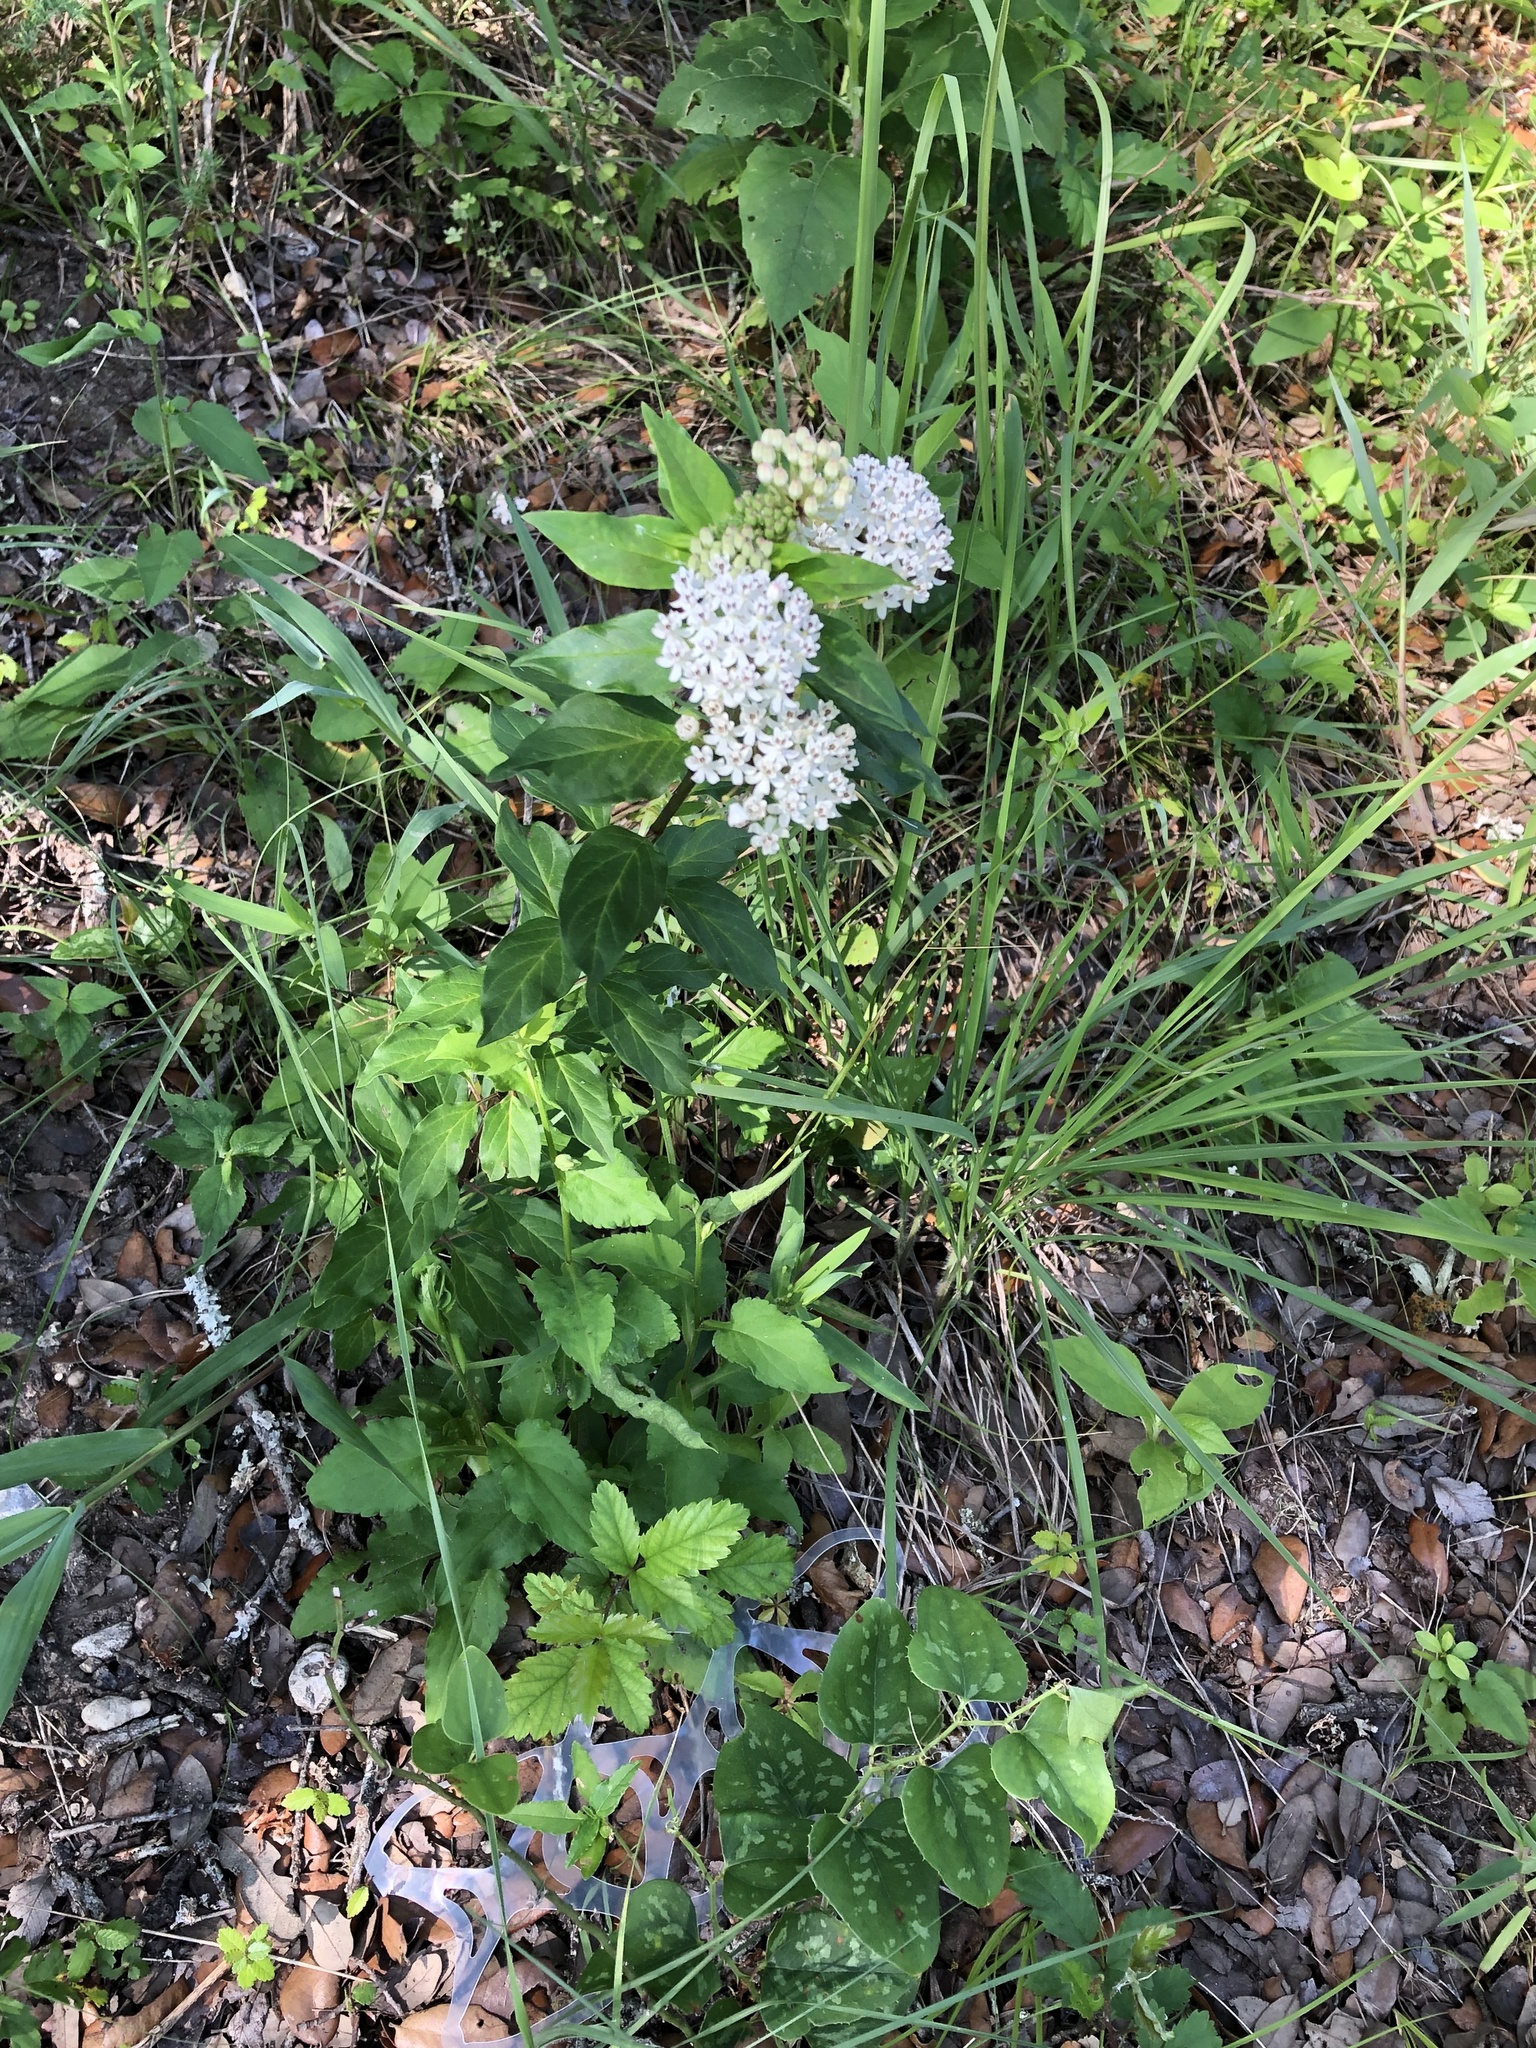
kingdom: Plantae
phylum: Tracheophyta
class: Magnoliopsida
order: Gentianales
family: Apocynaceae
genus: Asclepias
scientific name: Asclepias texana
